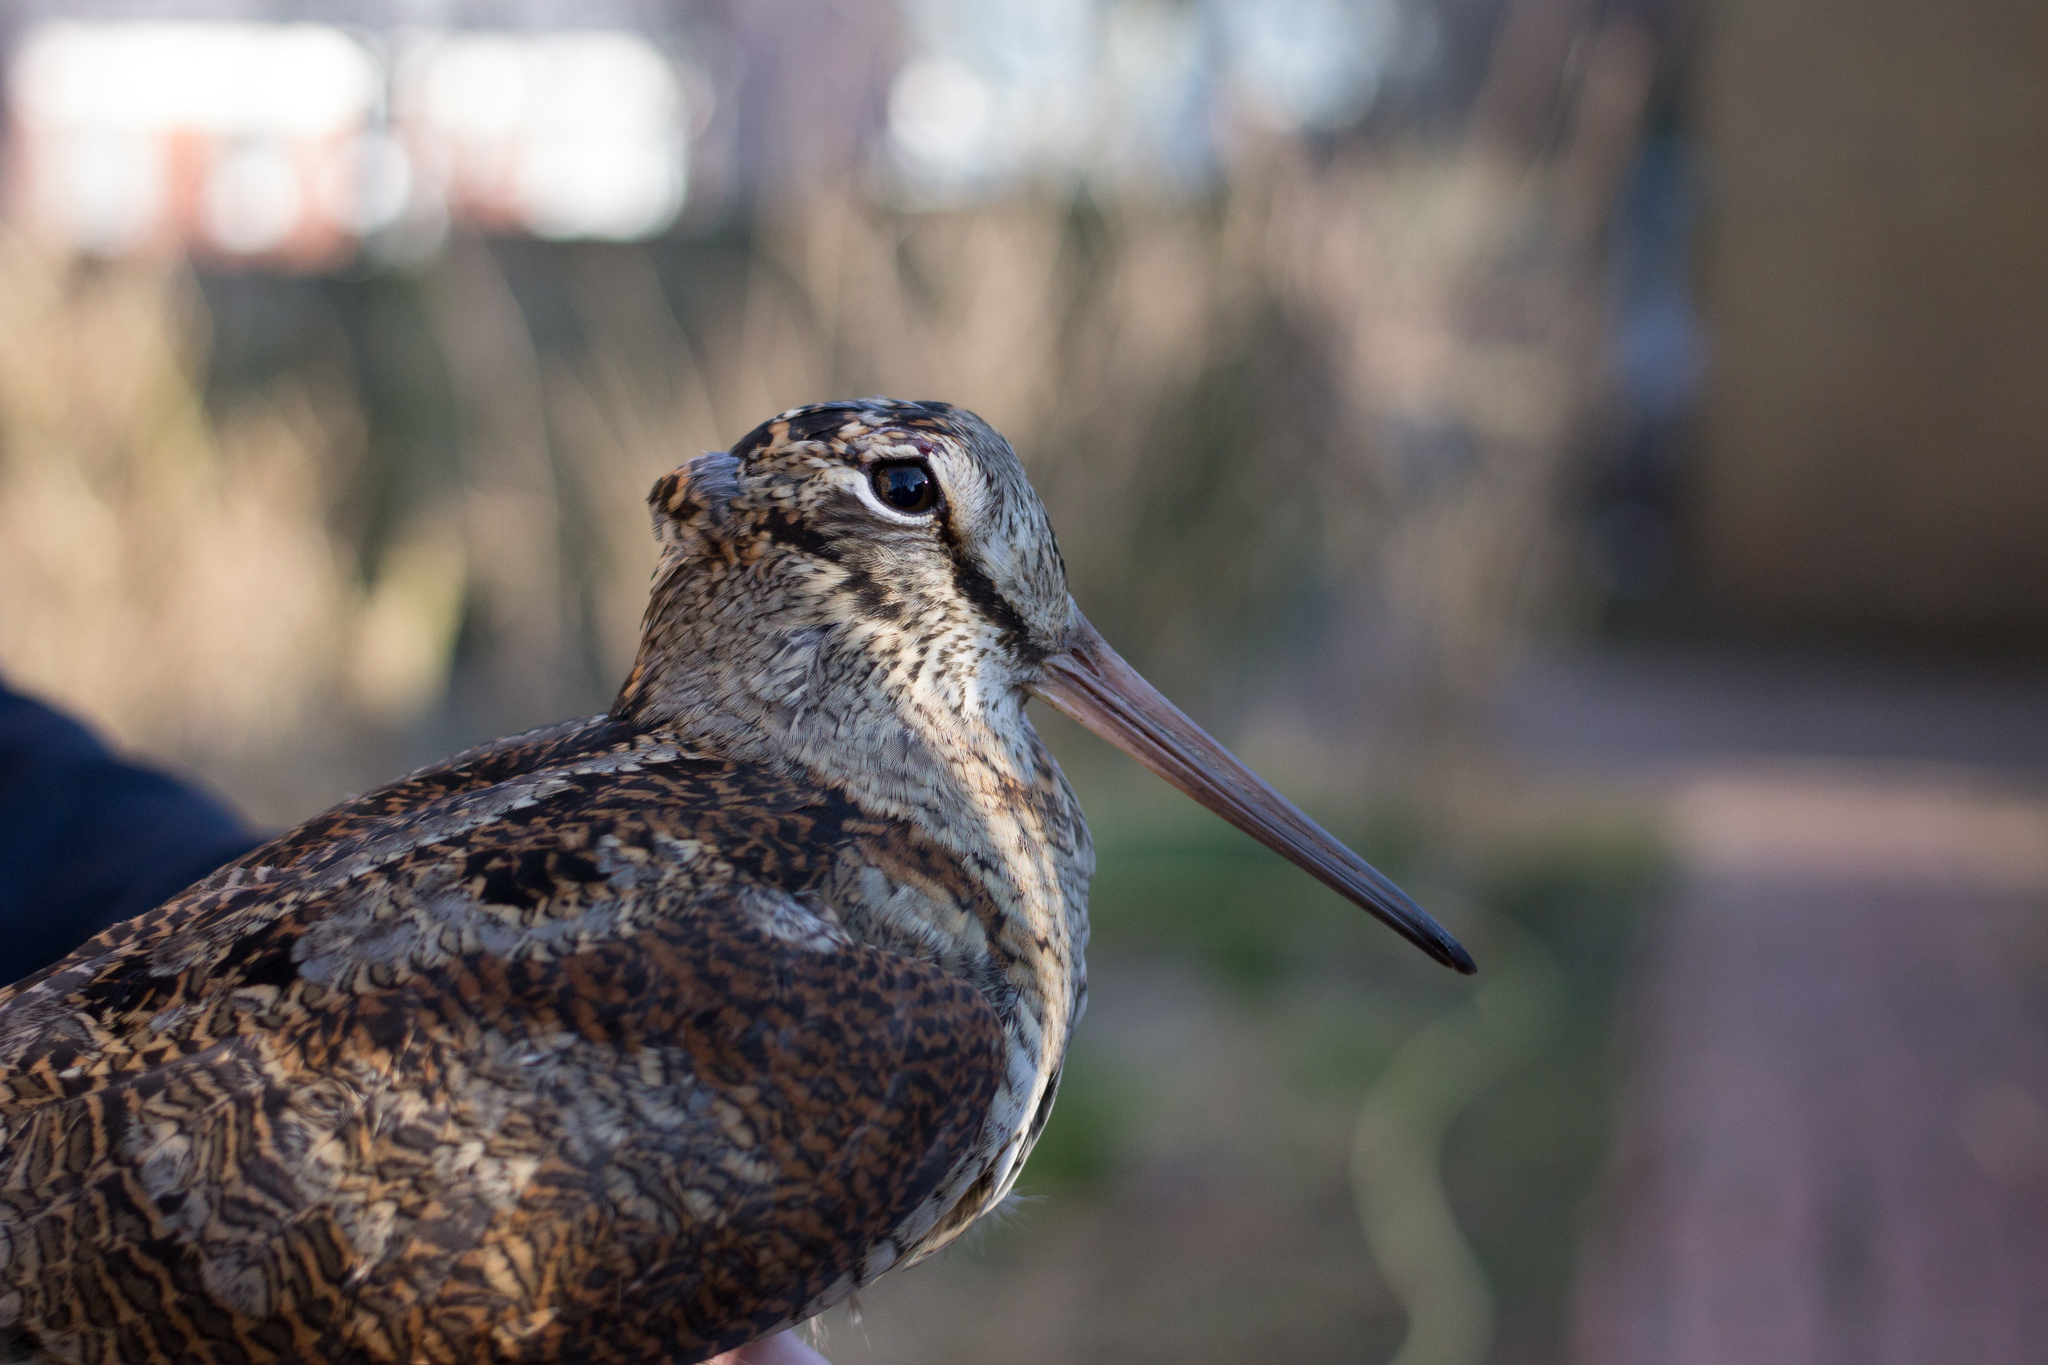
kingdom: Animalia
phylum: Chordata
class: Aves
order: Charadriiformes
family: Scolopacidae
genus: Scolopax
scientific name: Scolopax rusticola
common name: Eurasian woodcock
